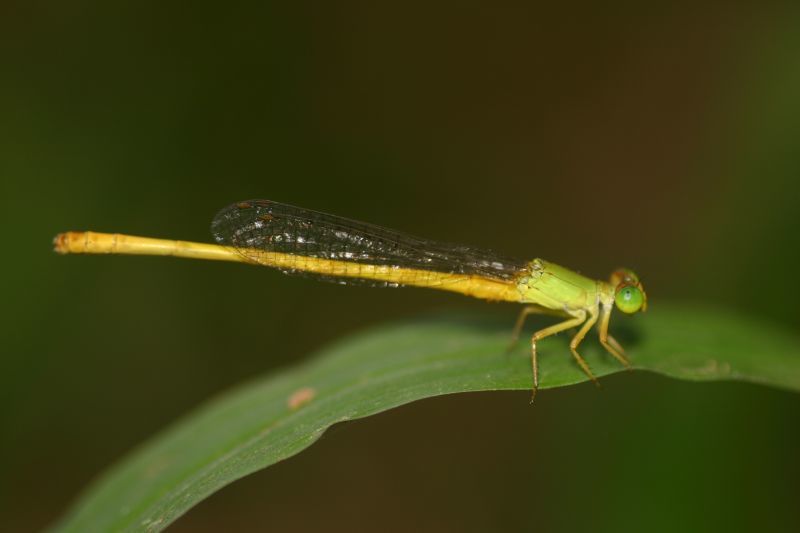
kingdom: Animalia
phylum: Arthropoda
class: Insecta
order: Odonata
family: Coenagrionidae
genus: Ceriagrion
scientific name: Ceriagrion coromandelianum
